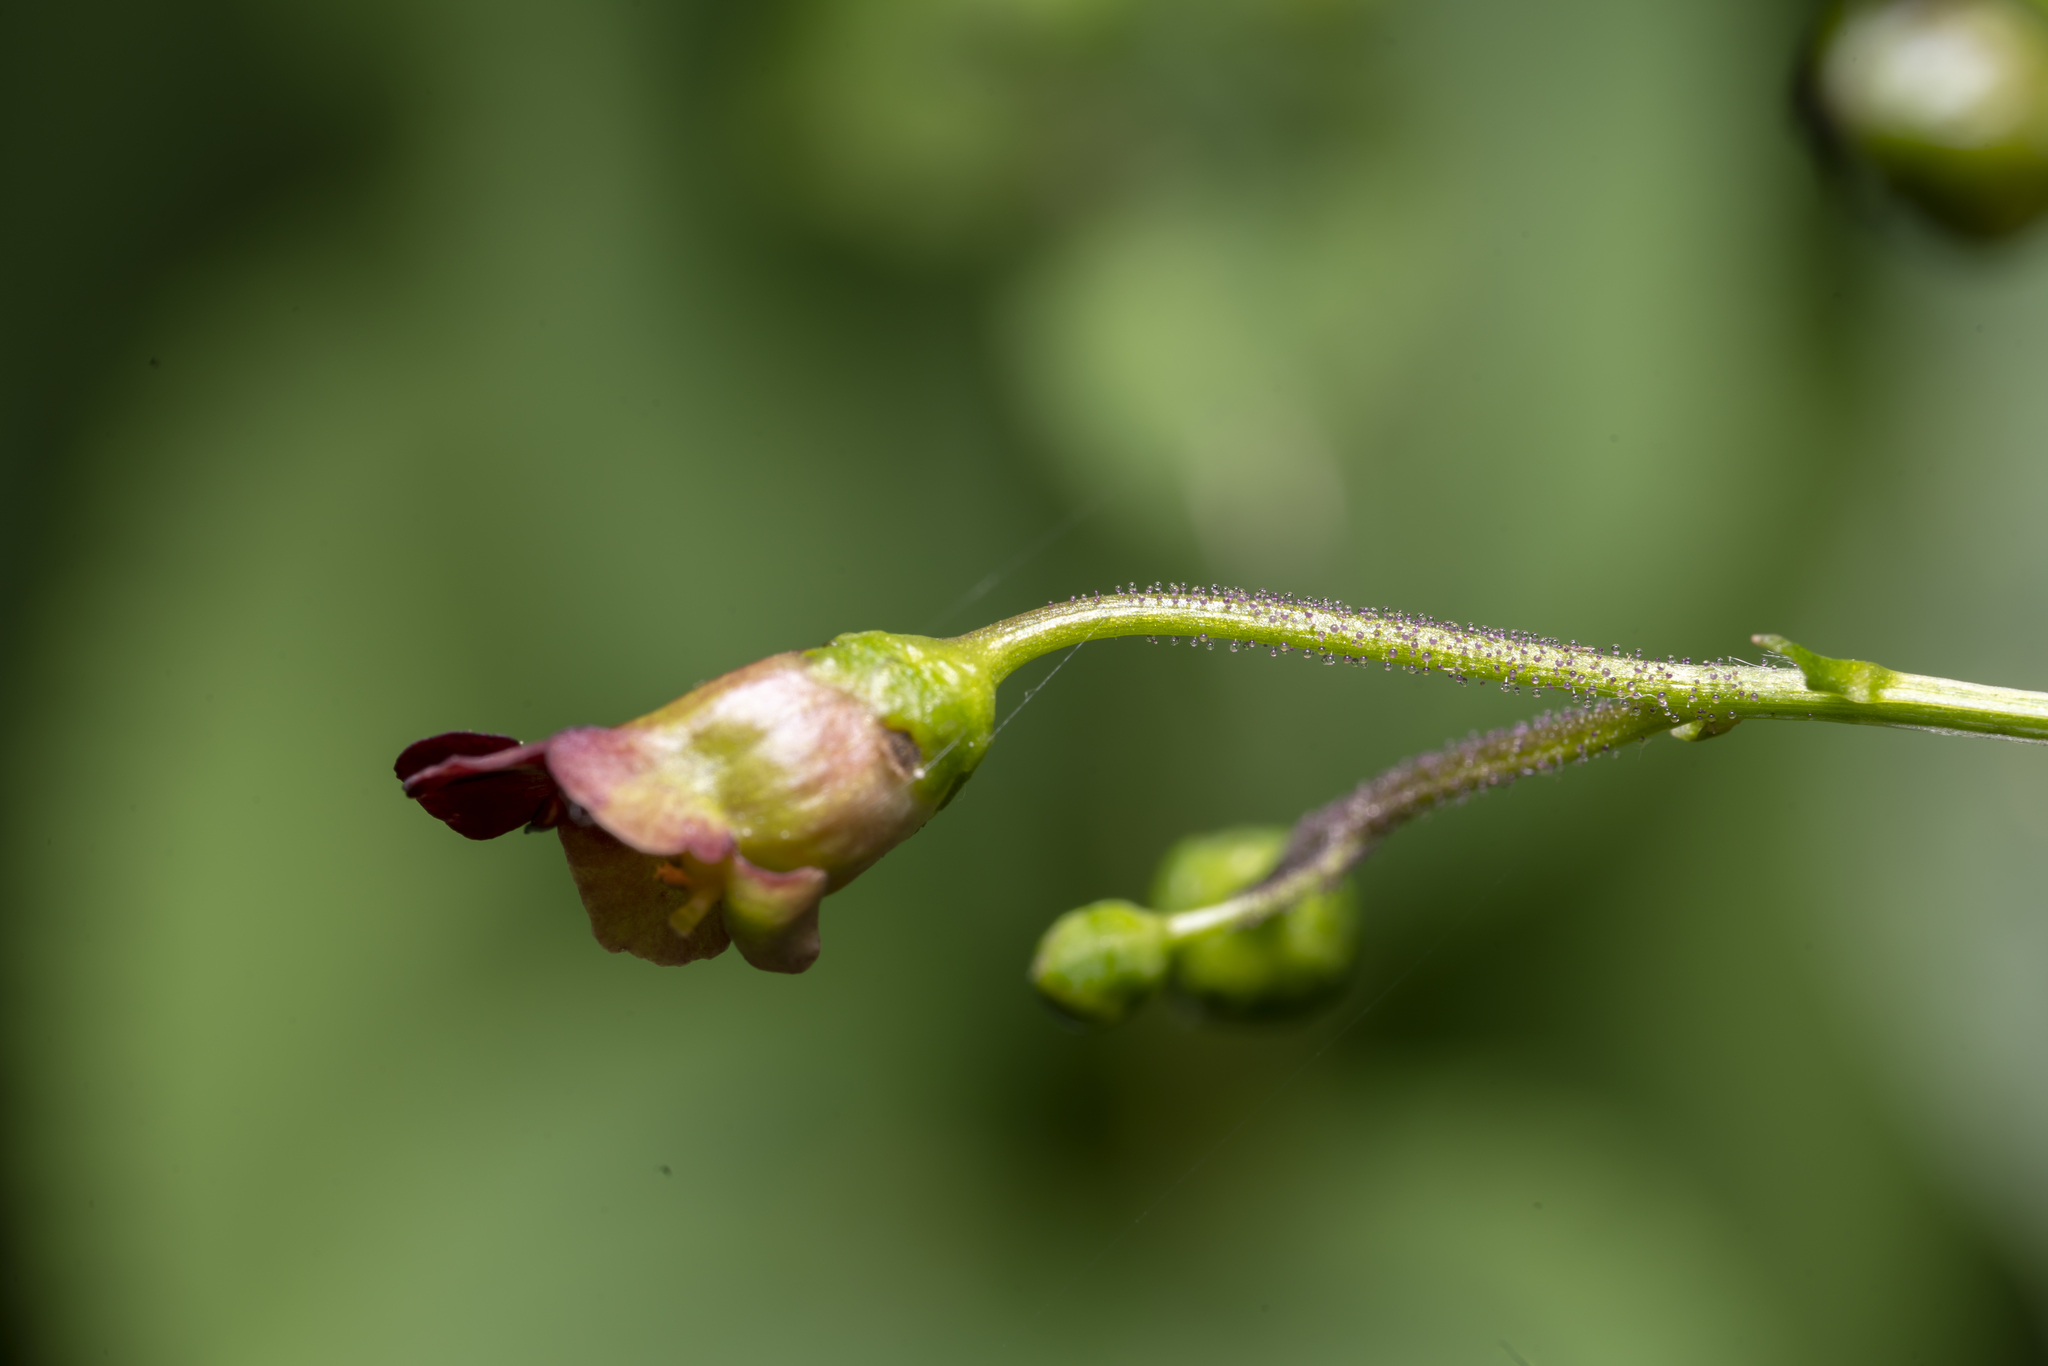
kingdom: Plantae
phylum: Tracheophyta
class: Magnoliopsida
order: Lamiales
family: Scrophulariaceae
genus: Scrophularia
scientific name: Scrophularia nodosa
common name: Common figwort
